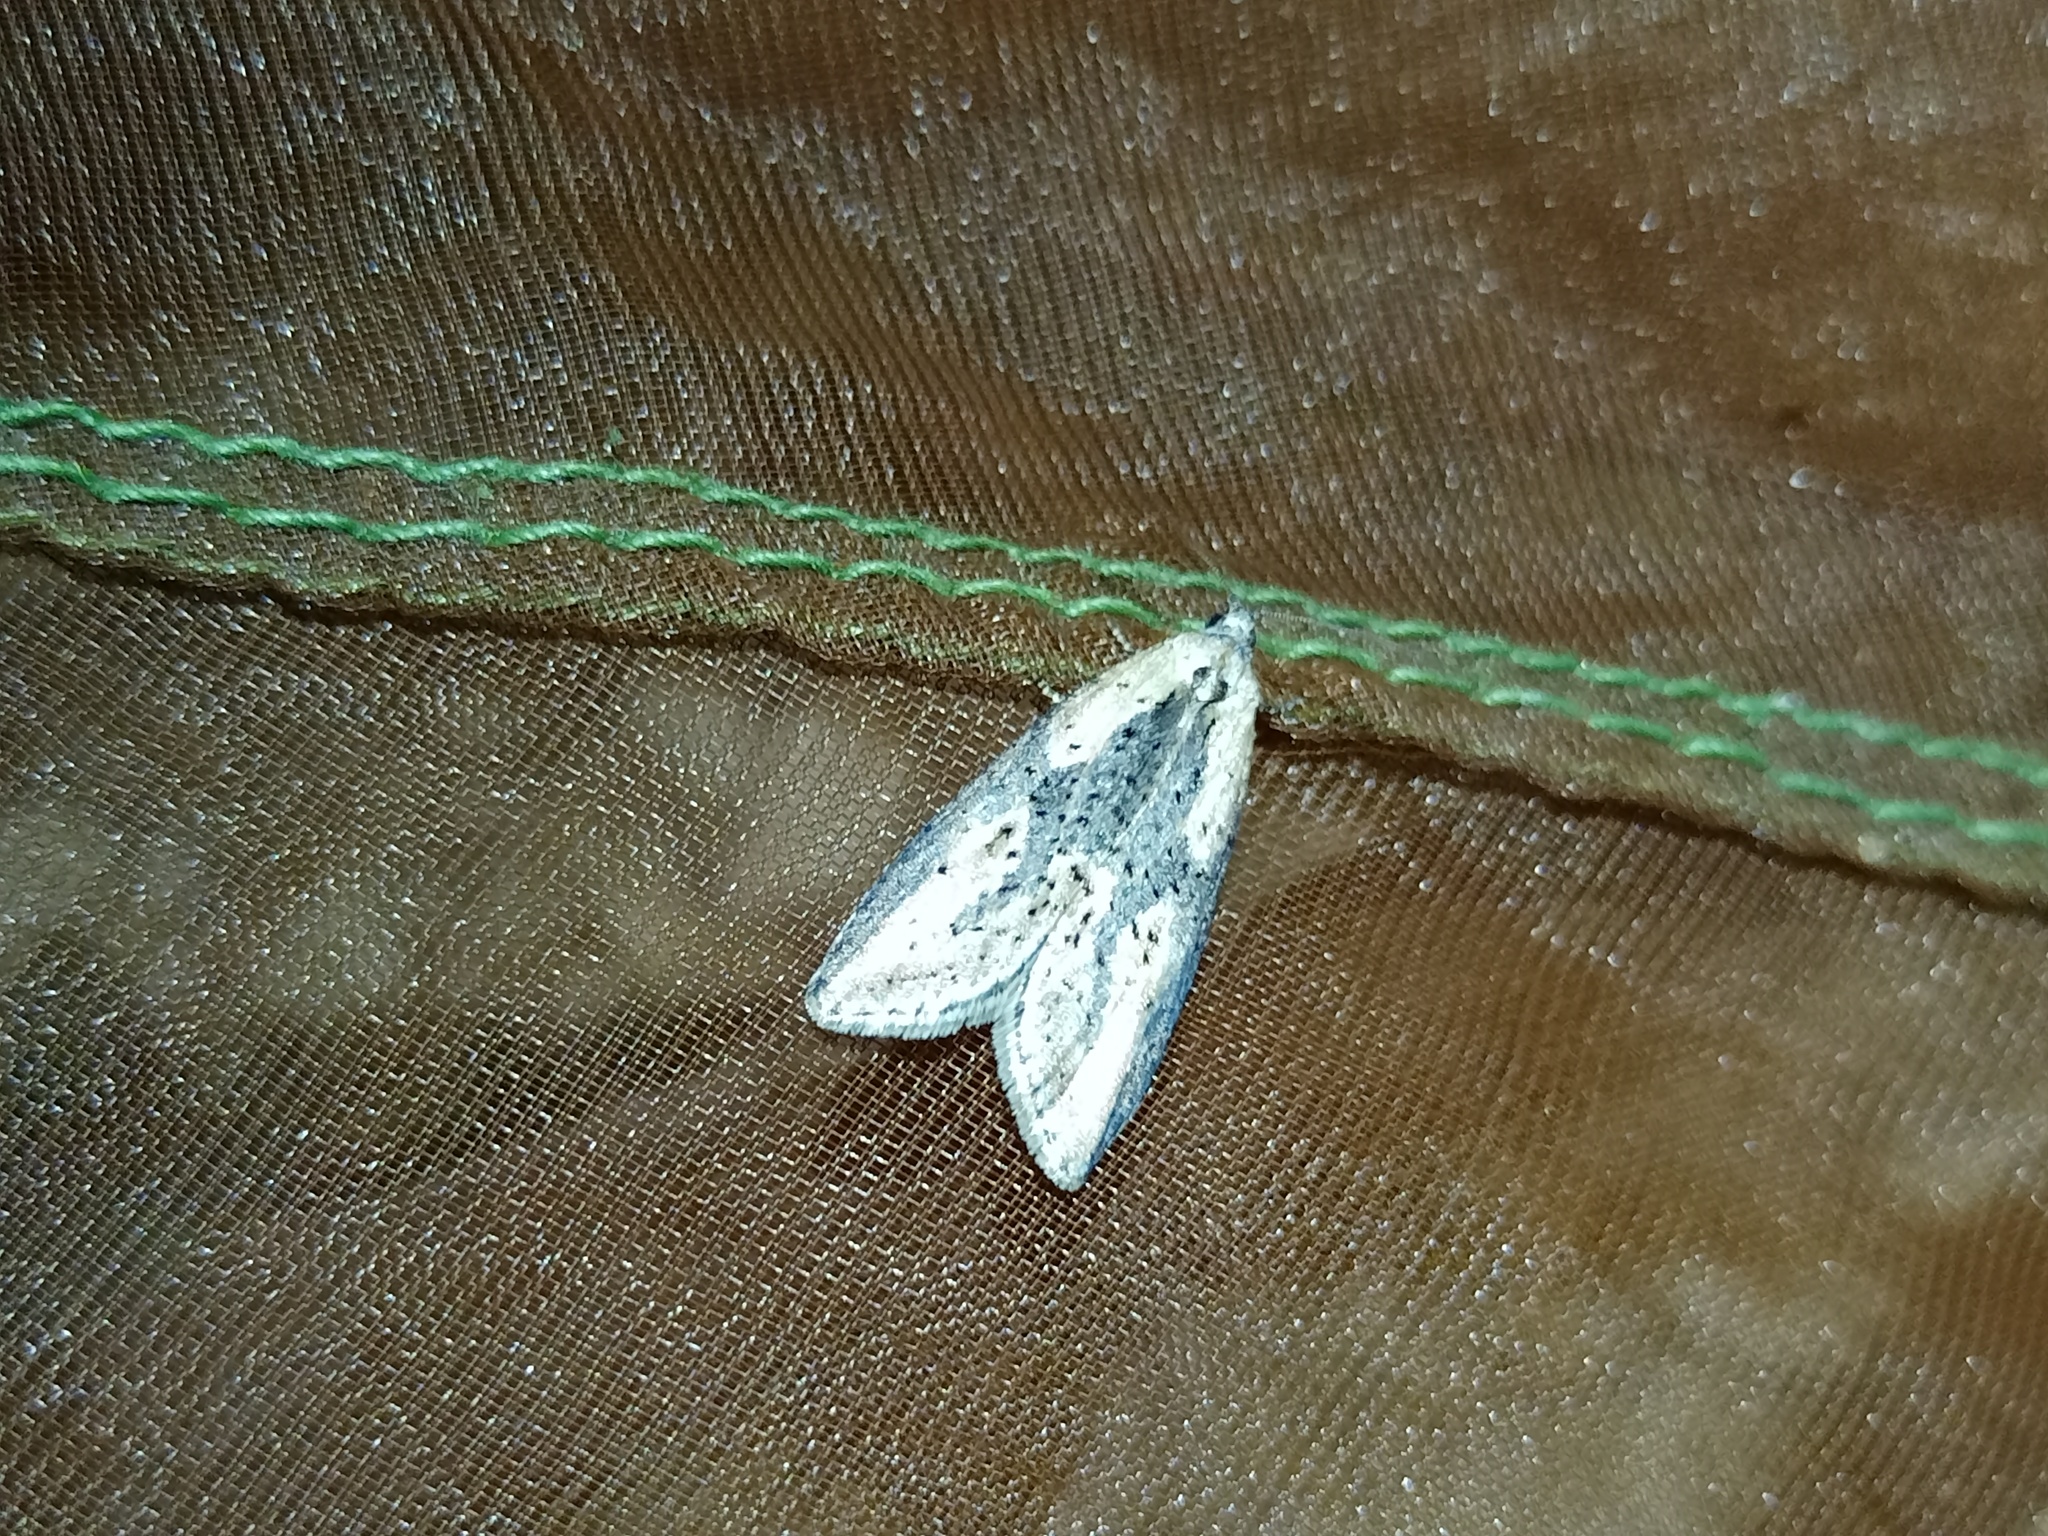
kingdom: Animalia
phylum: Arthropoda
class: Insecta
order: Lepidoptera
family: Tortricidae
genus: Doloploca
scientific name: Doloploca punctulana
